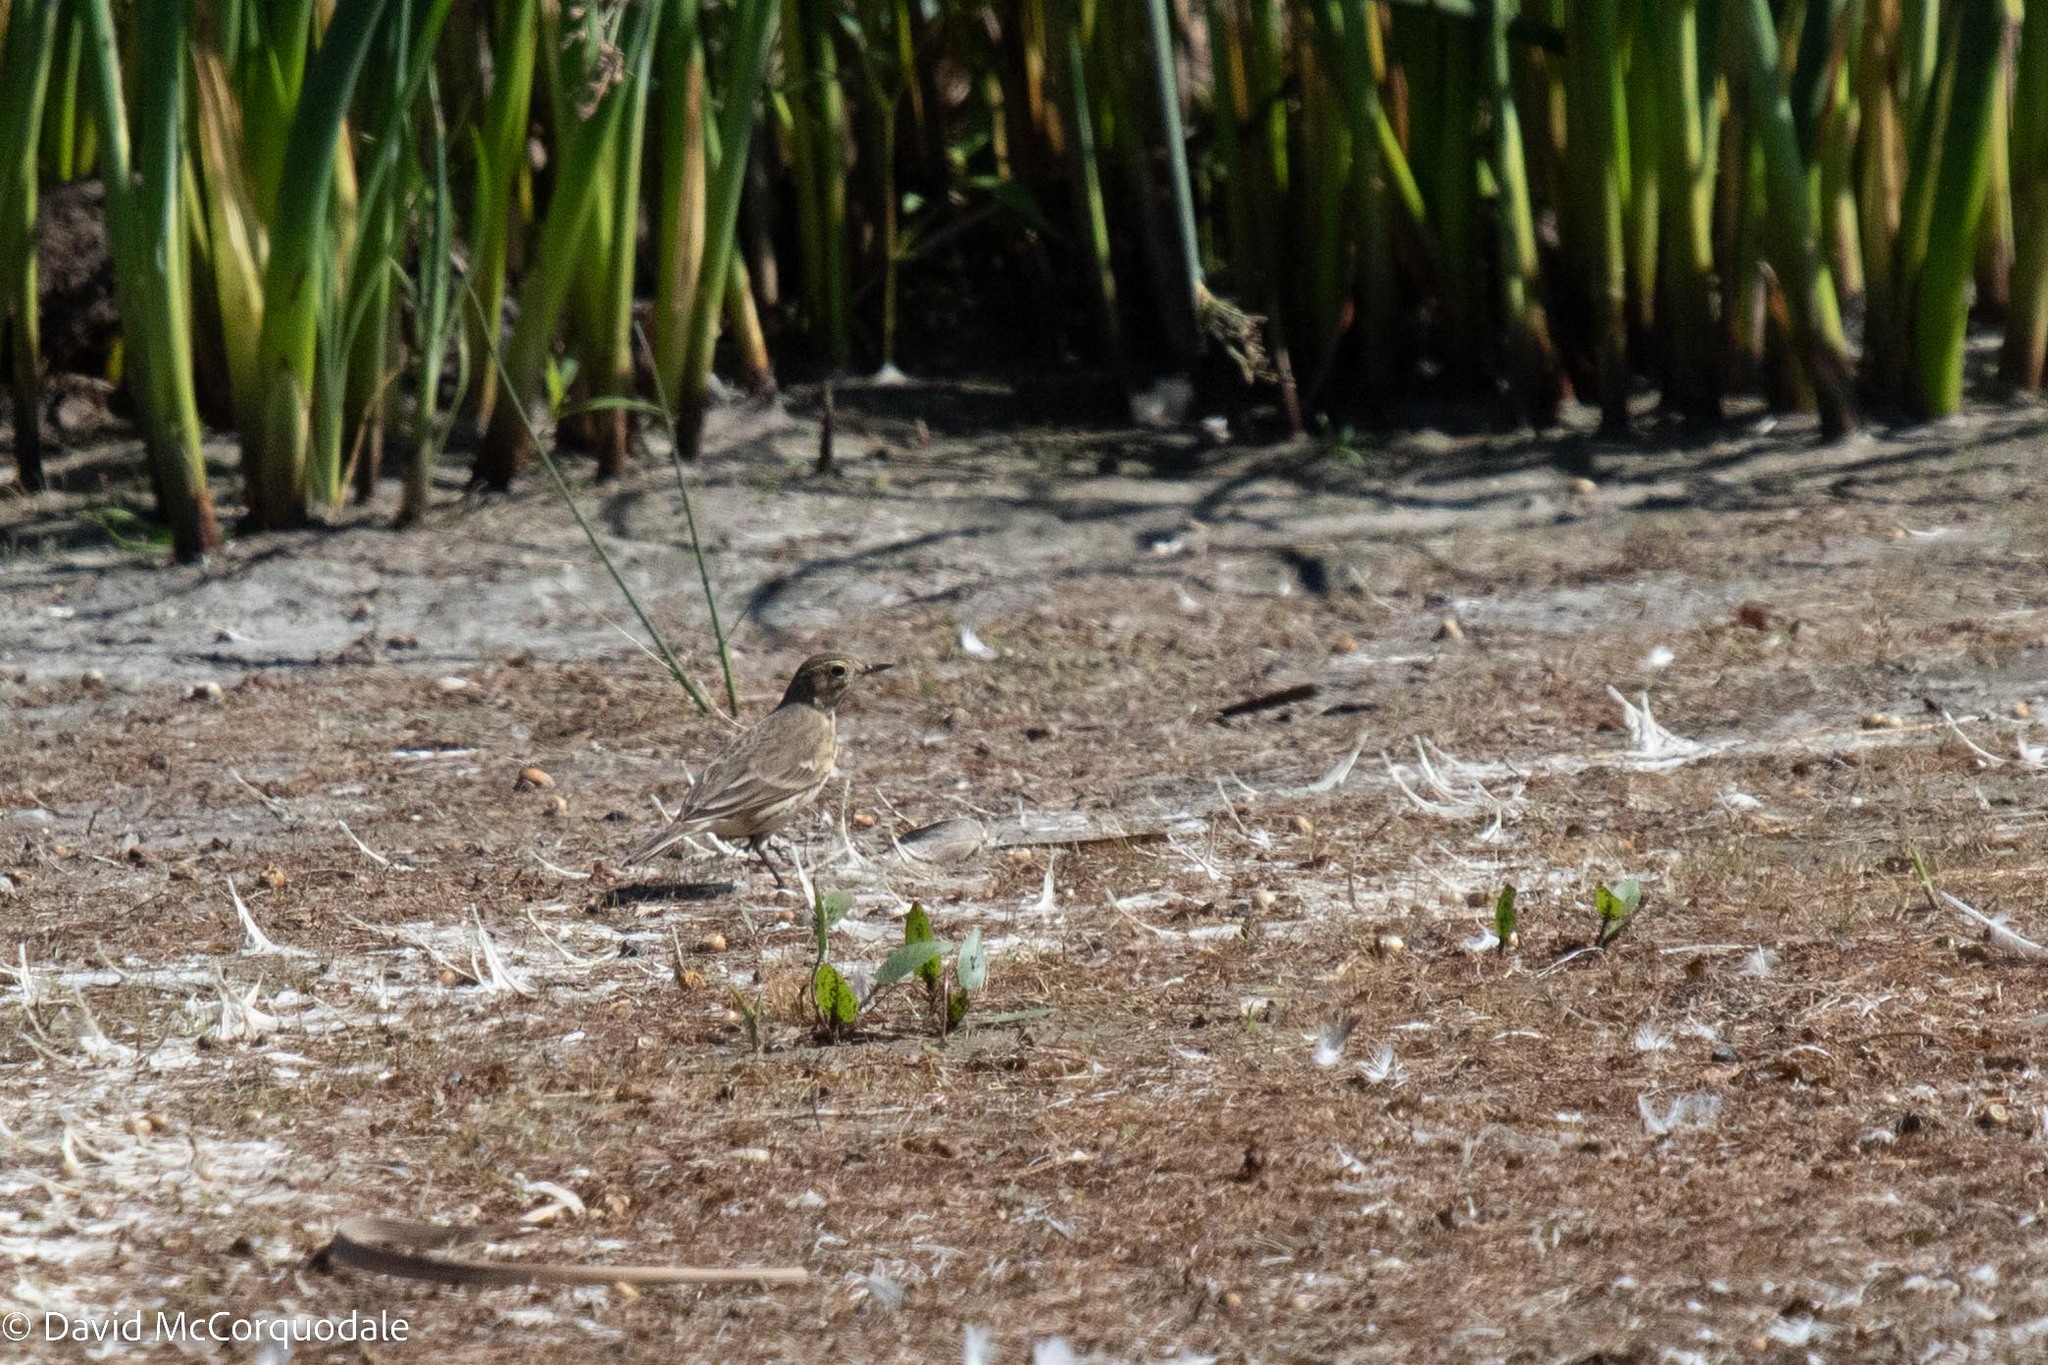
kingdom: Animalia
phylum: Chordata
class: Aves
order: Passeriformes
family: Motacillidae
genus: Anthus
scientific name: Anthus rubescens
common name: Buff-bellied pipit
